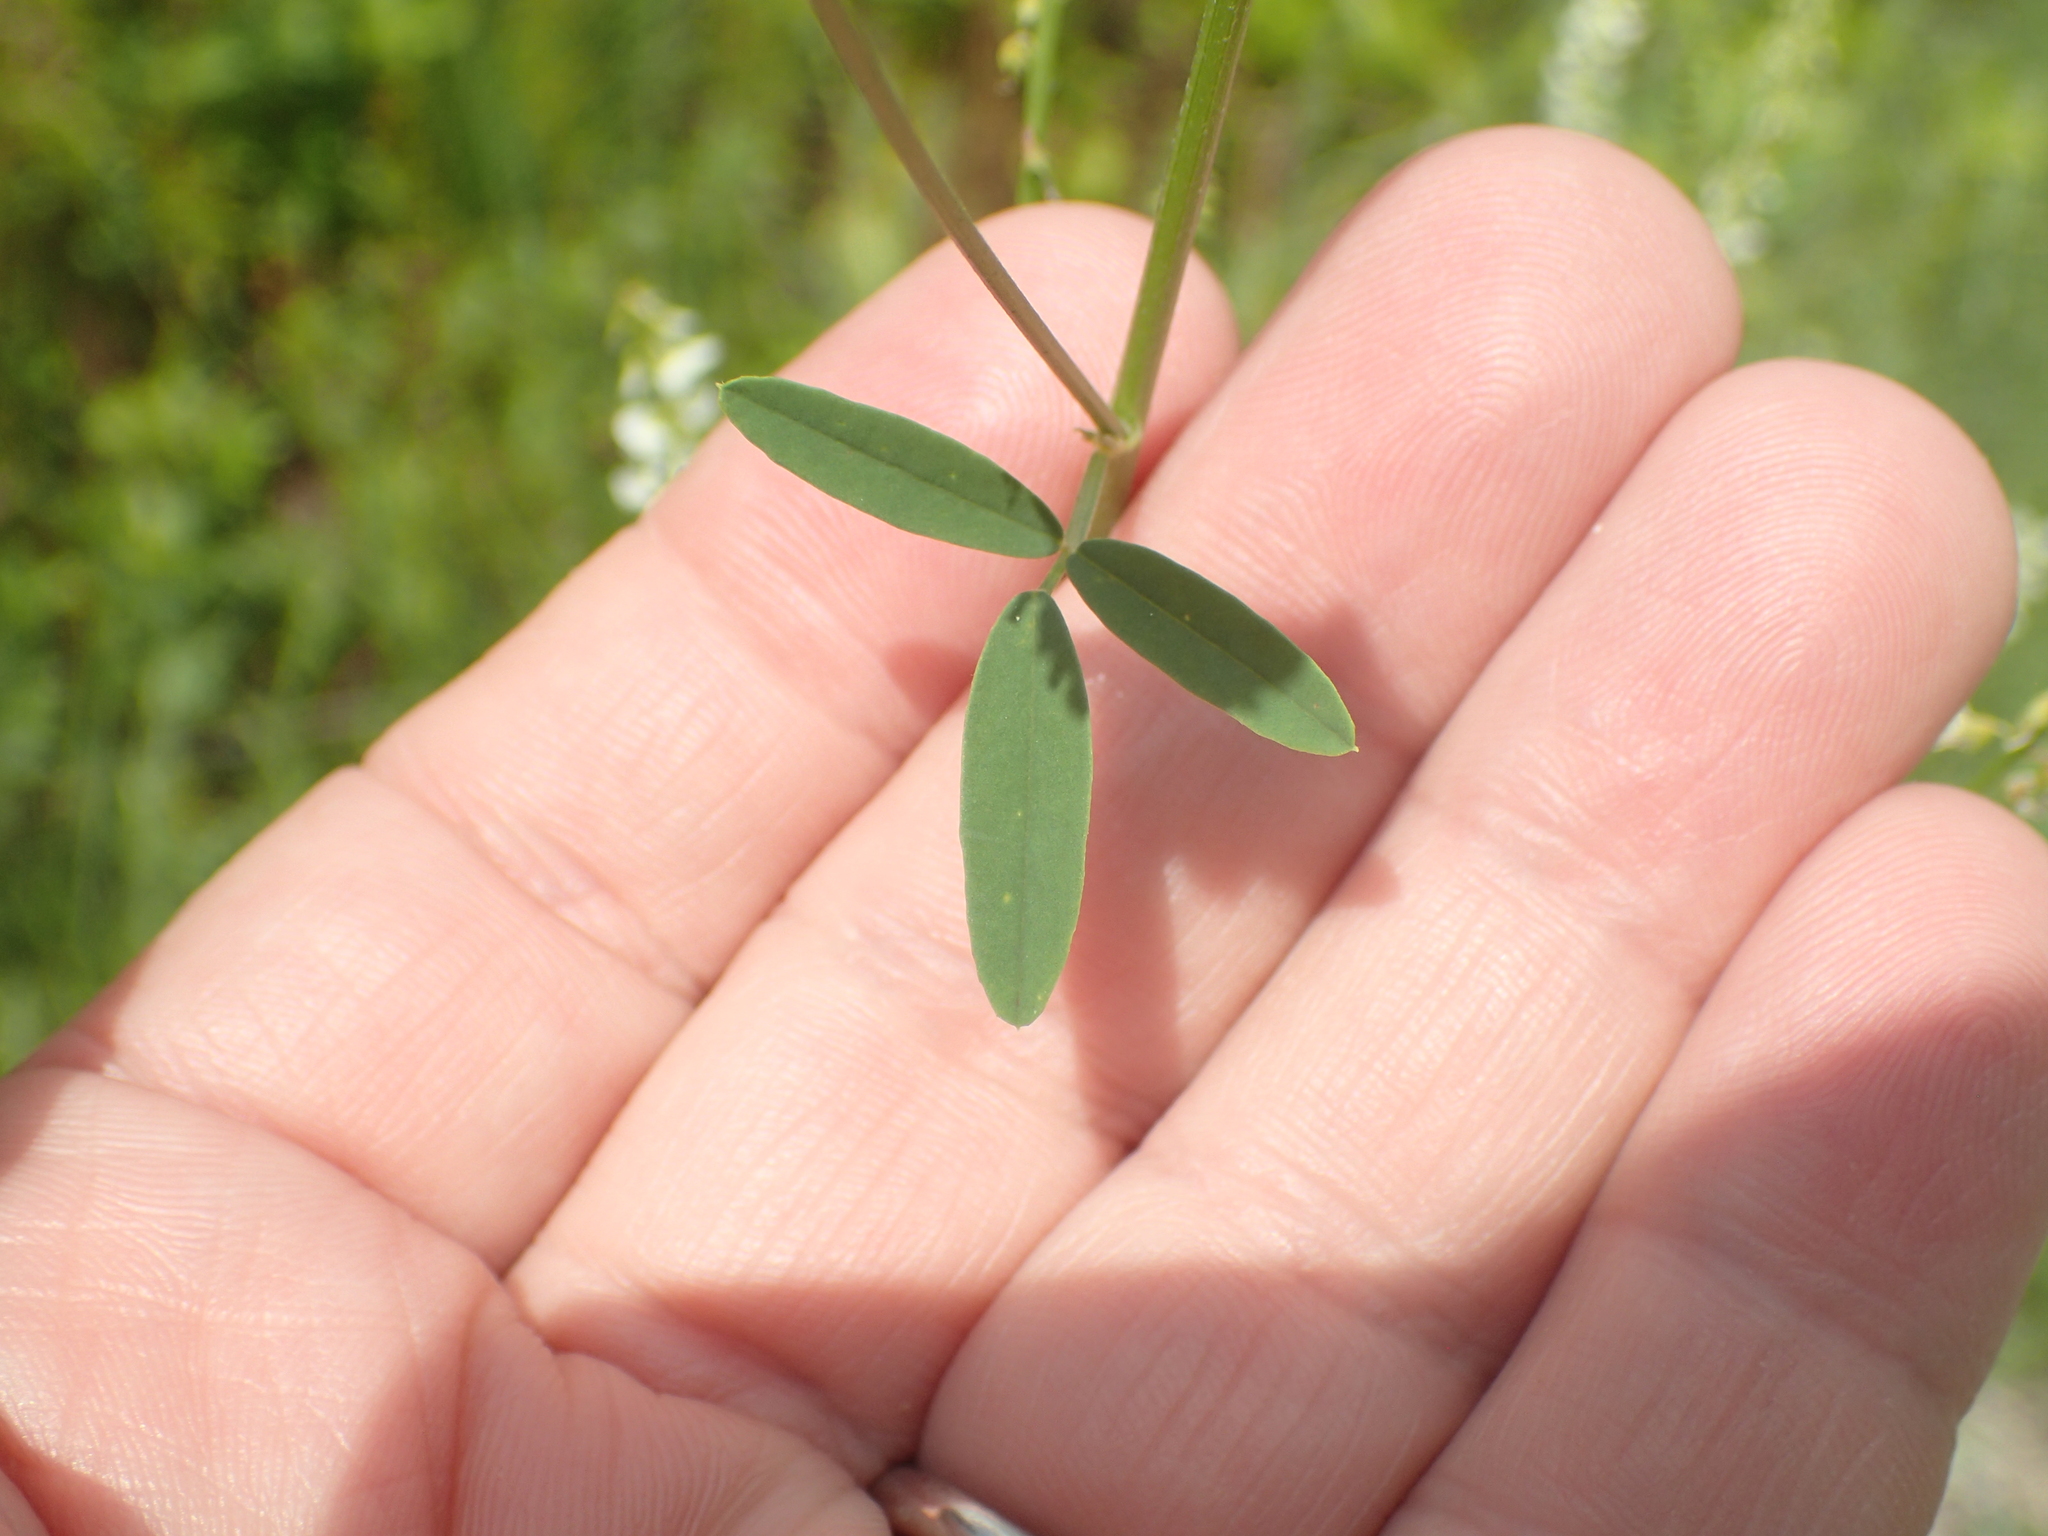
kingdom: Plantae
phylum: Tracheophyta
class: Magnoliopsida
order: Fabales
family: Fabaceae
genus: Melilotus
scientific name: Melilotus albus
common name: White melilot
